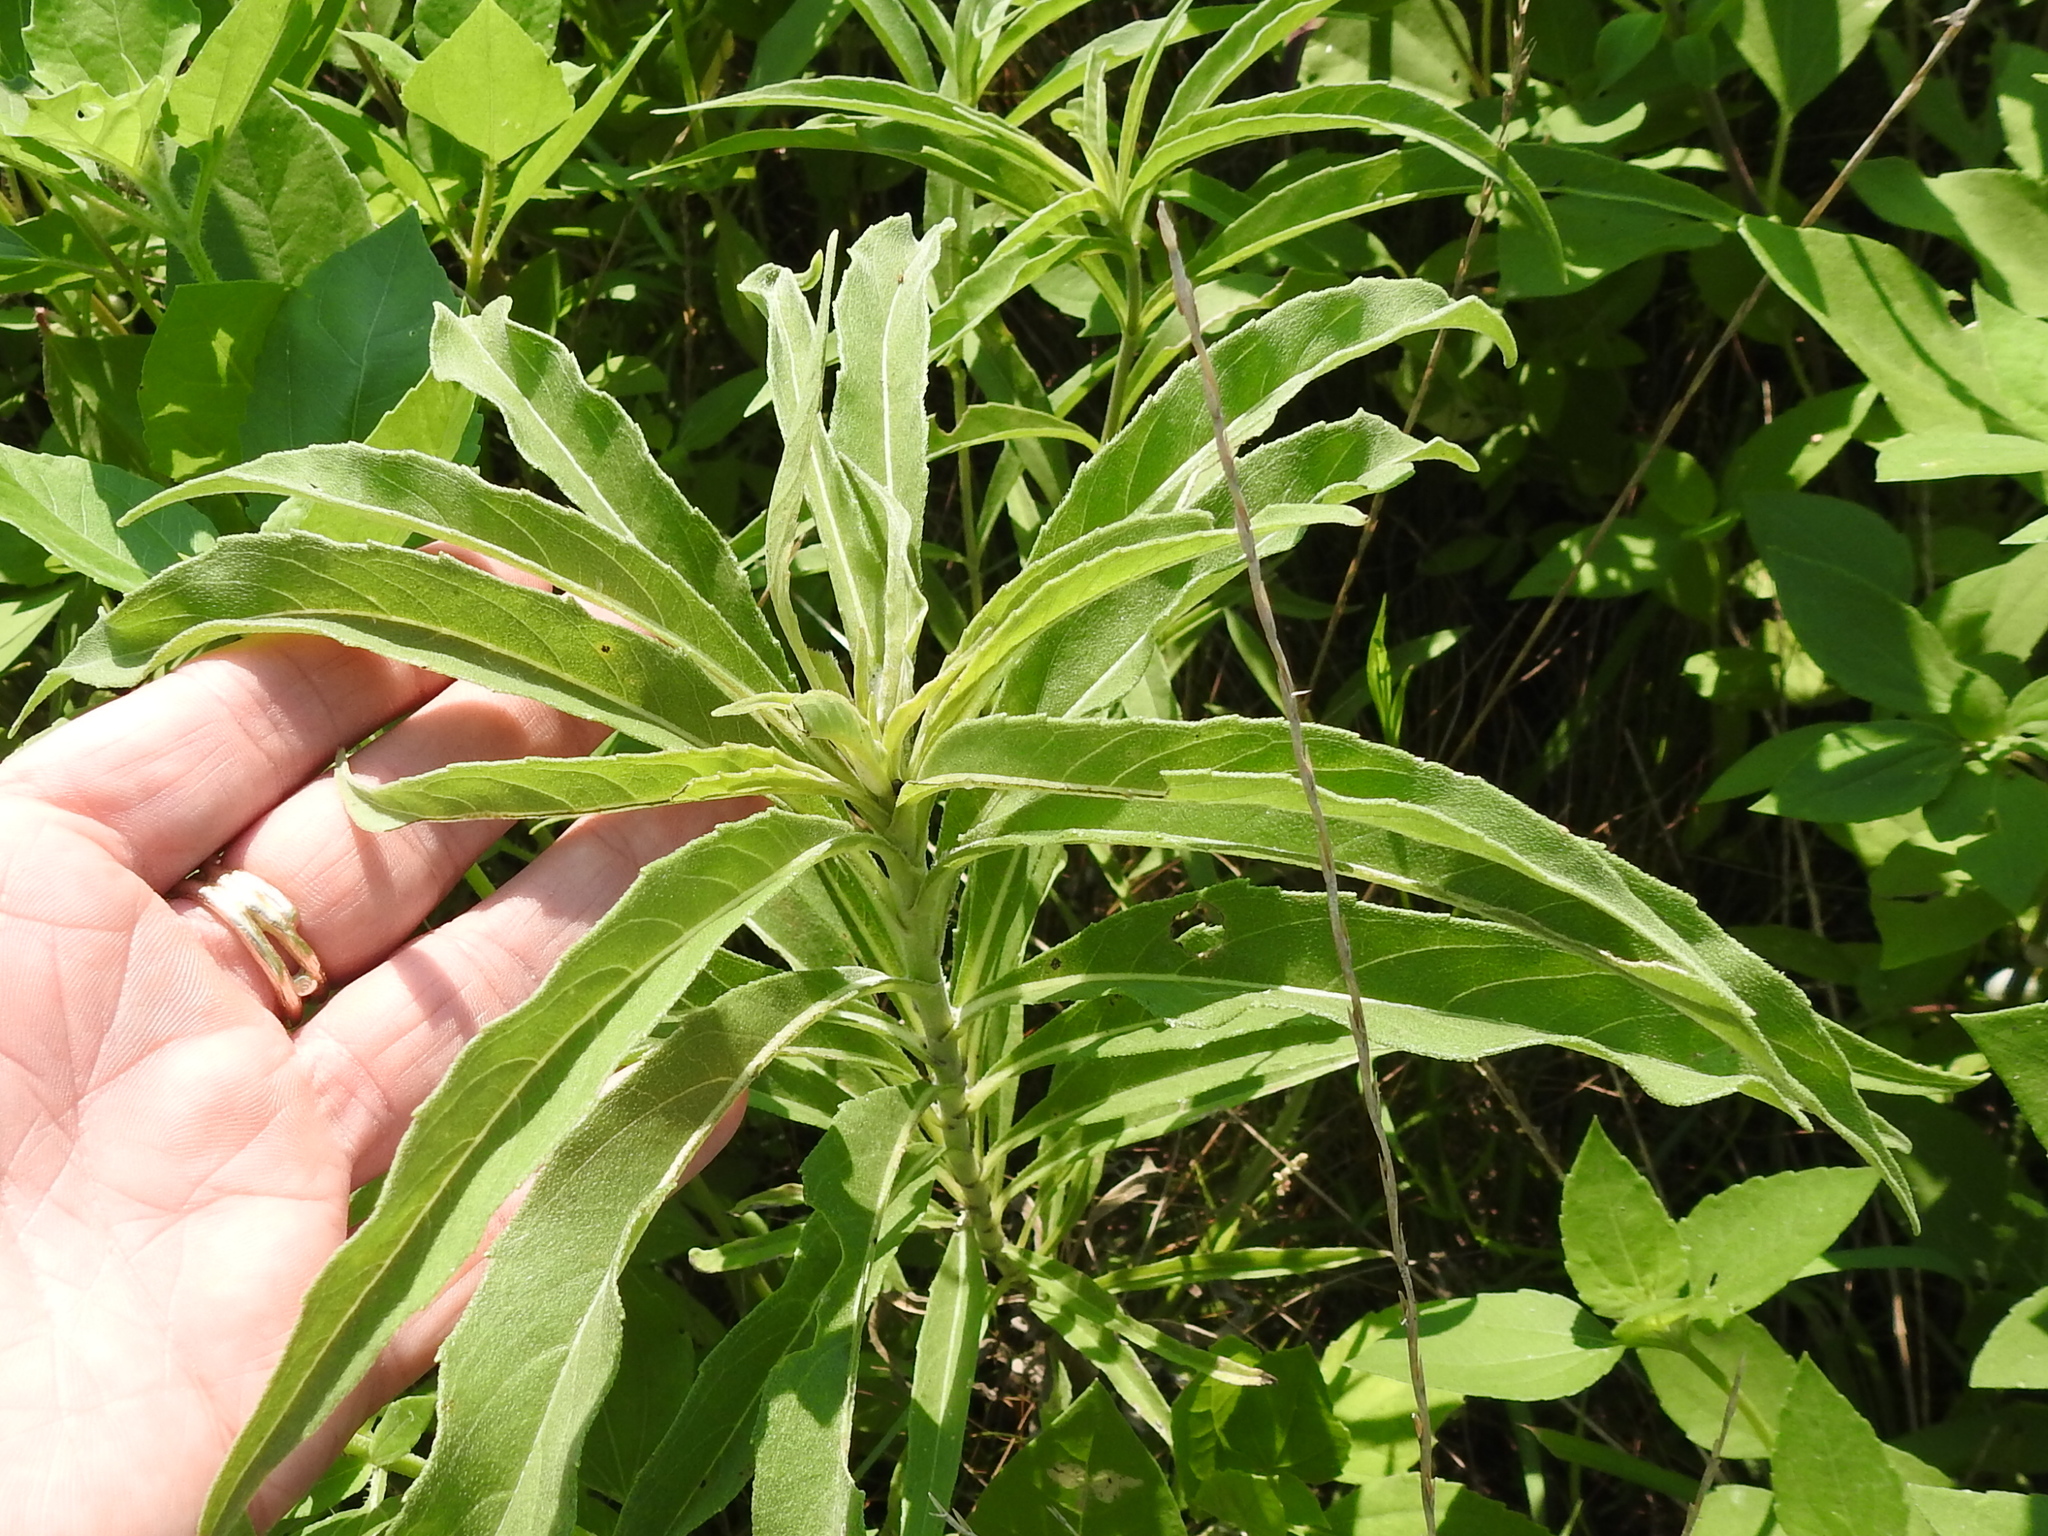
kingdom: Plantae
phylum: Tracheophyta
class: Magnoliopsida
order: Asterales
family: Asteraceae
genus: Helianthus
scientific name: Helianthus maximiliani
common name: Maximilian's sunflower
